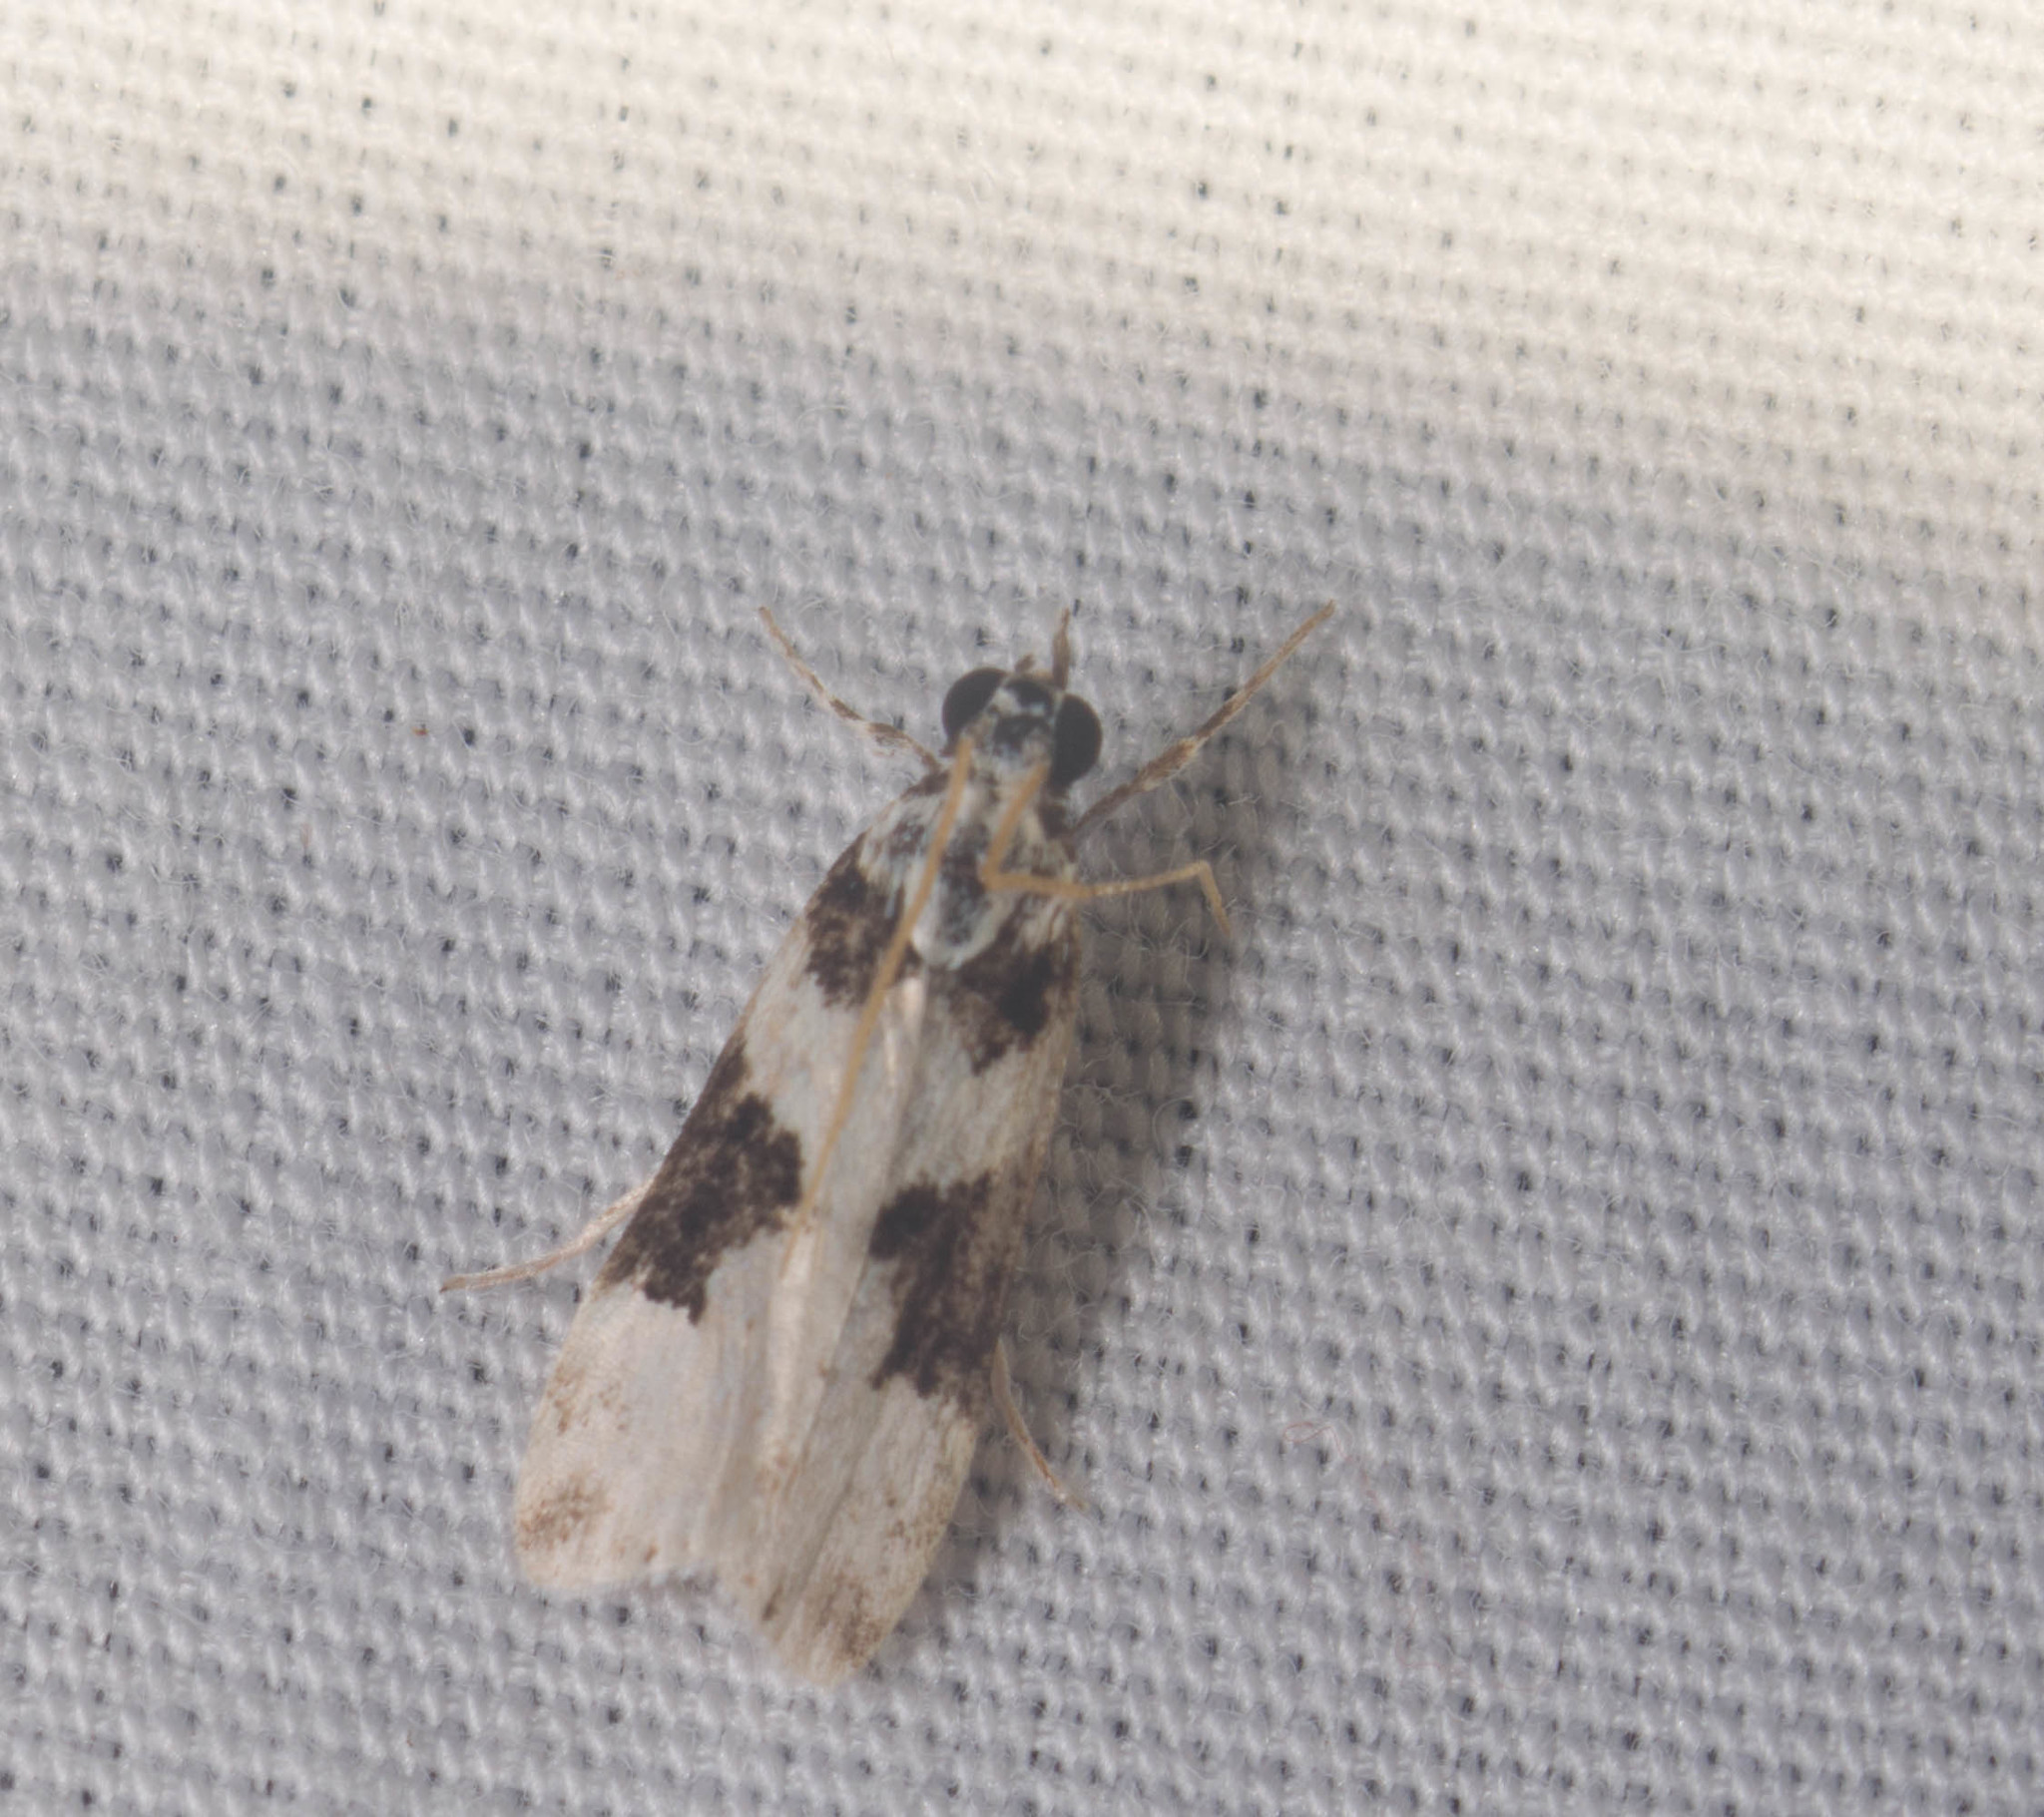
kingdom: Animalia
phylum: Arthropoda
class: Insecta
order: Lepidoptera
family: Crambidae
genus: Eudonia
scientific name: Eudonia
